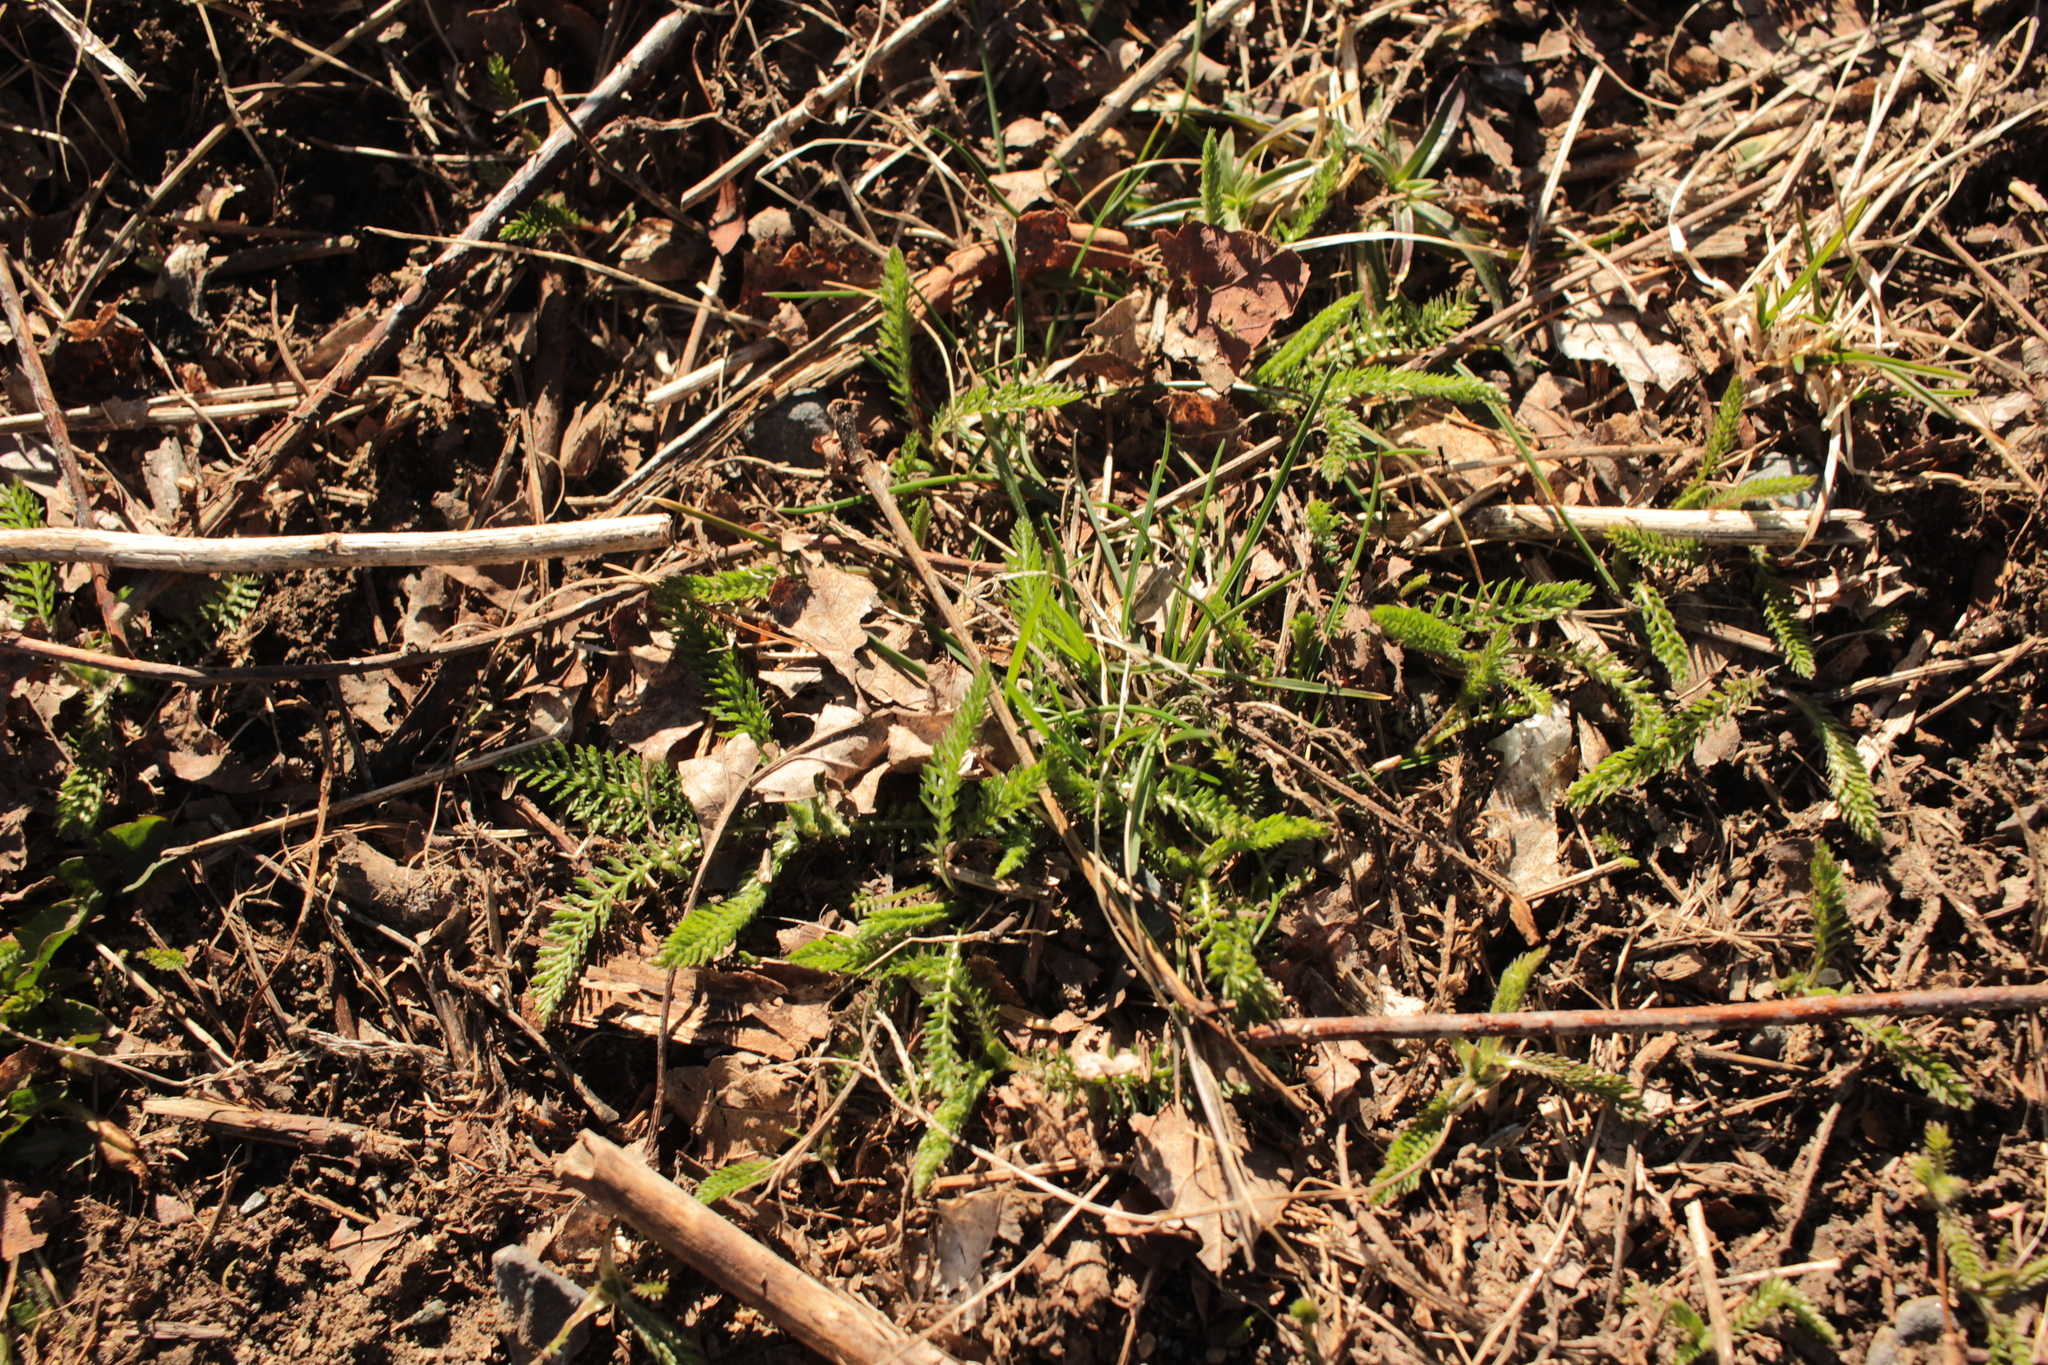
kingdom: Plantae
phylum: Tracheophyta
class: Magnoliopsida
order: Asterales
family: Asteraceae
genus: Achillea
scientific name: Achillea millefolium
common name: Yarrow
